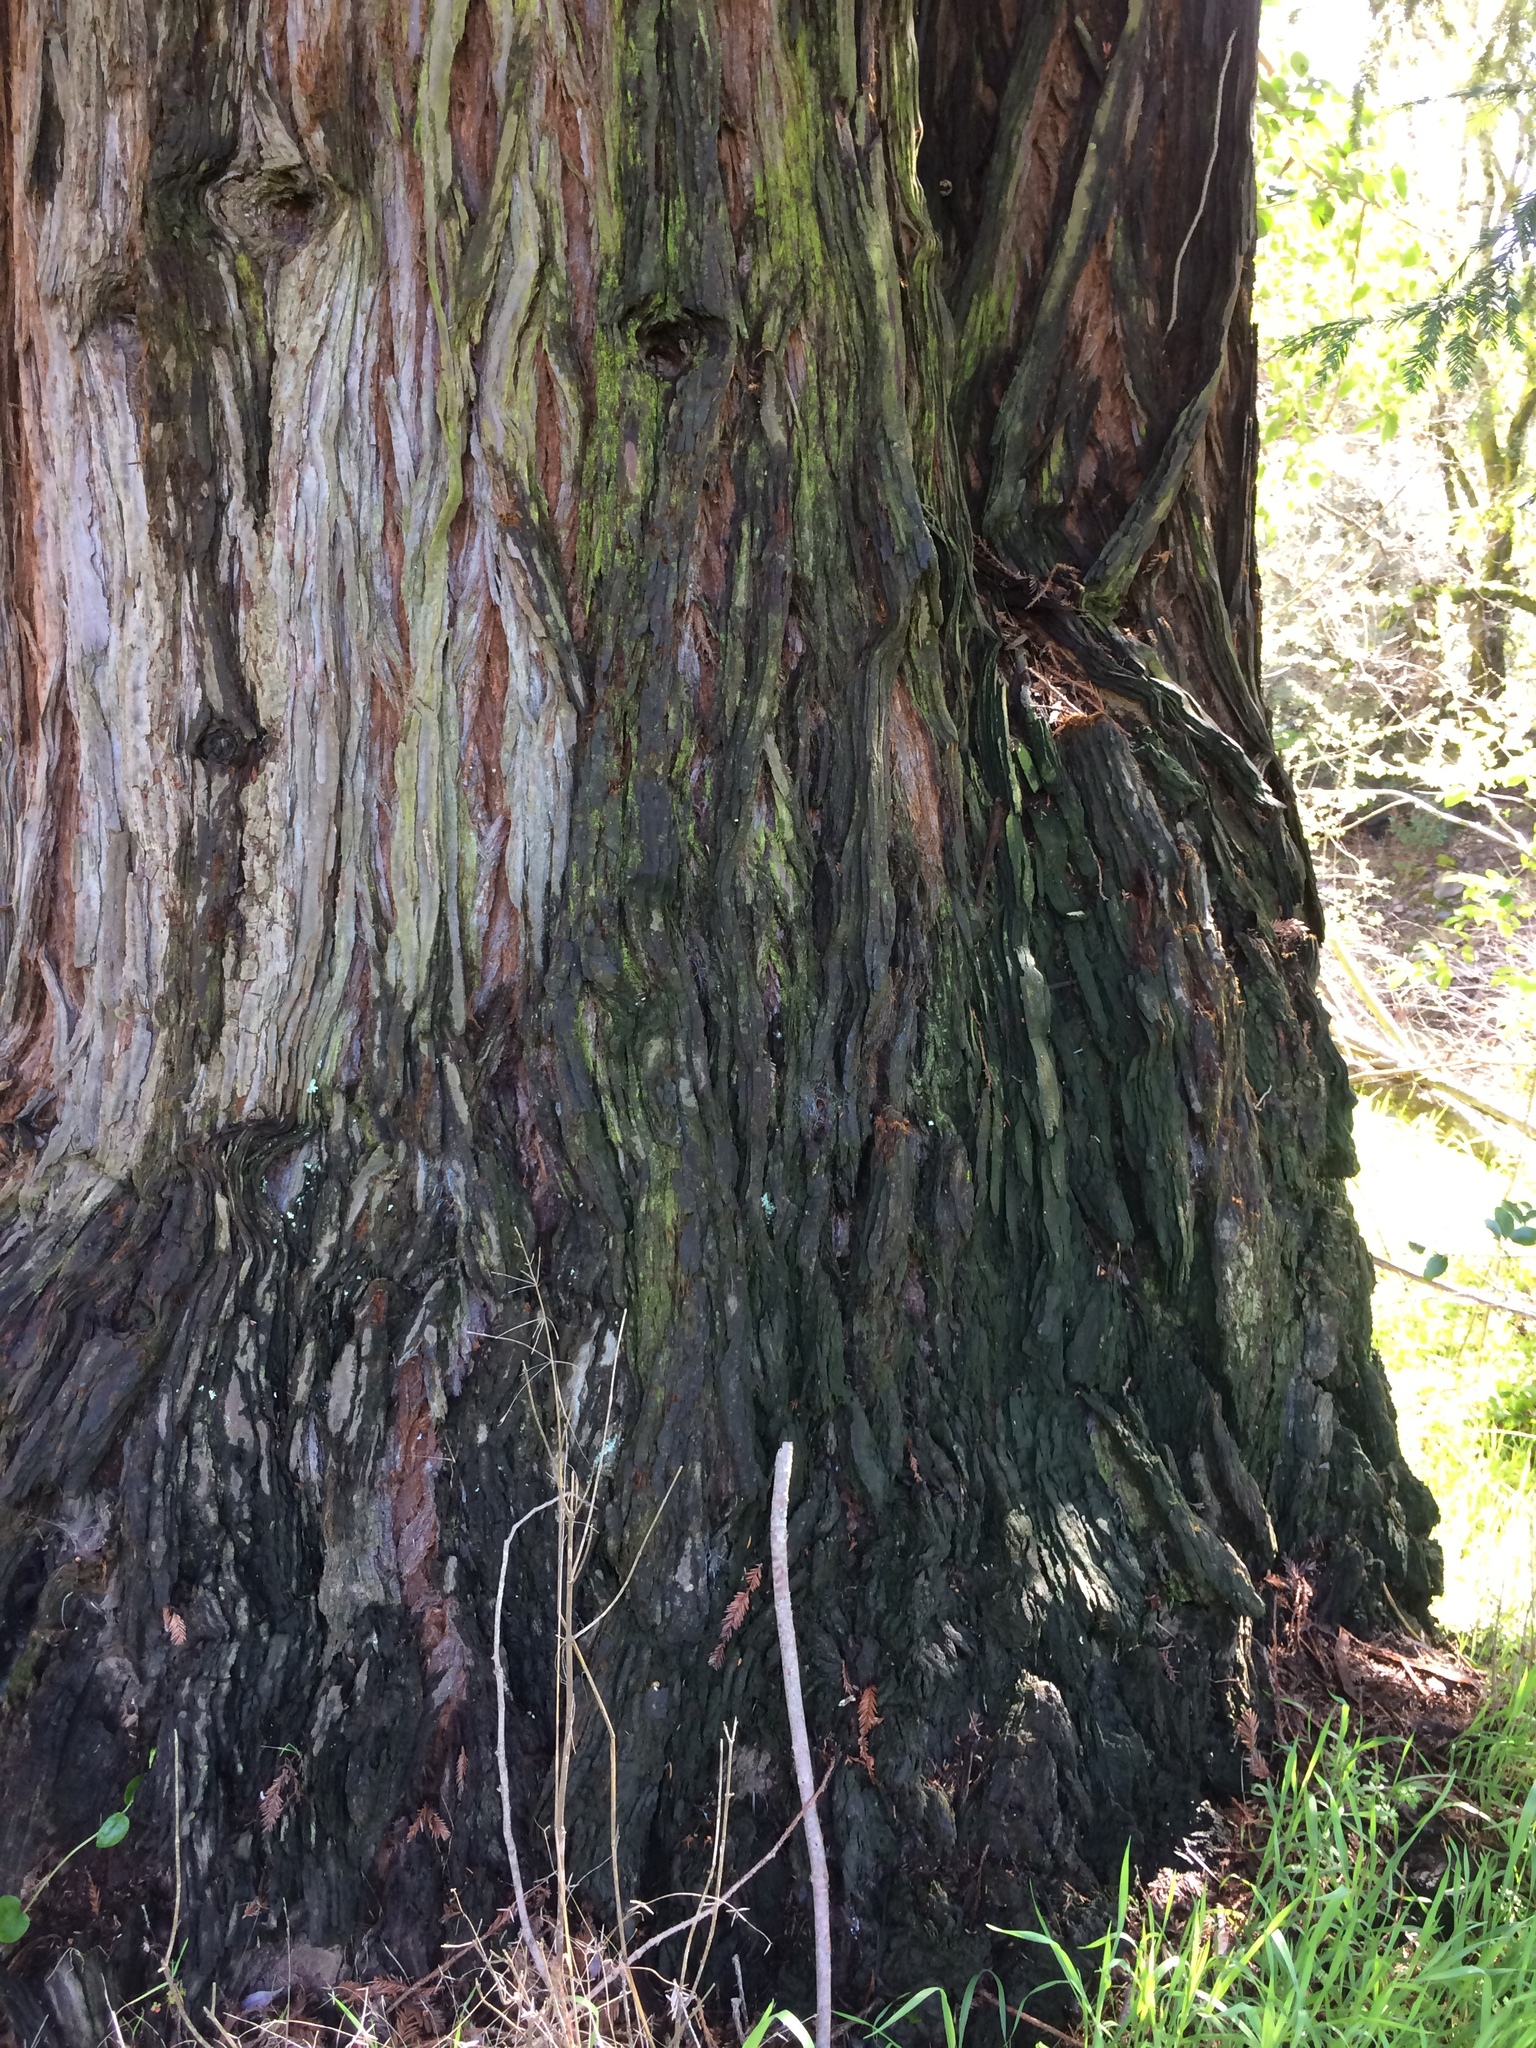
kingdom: Plantae
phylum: Tracheophyta
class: Pinopsida
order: Pinales
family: Cupressaceae
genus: Sequoia
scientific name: Sequoia sempervirens
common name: Coast redwood
